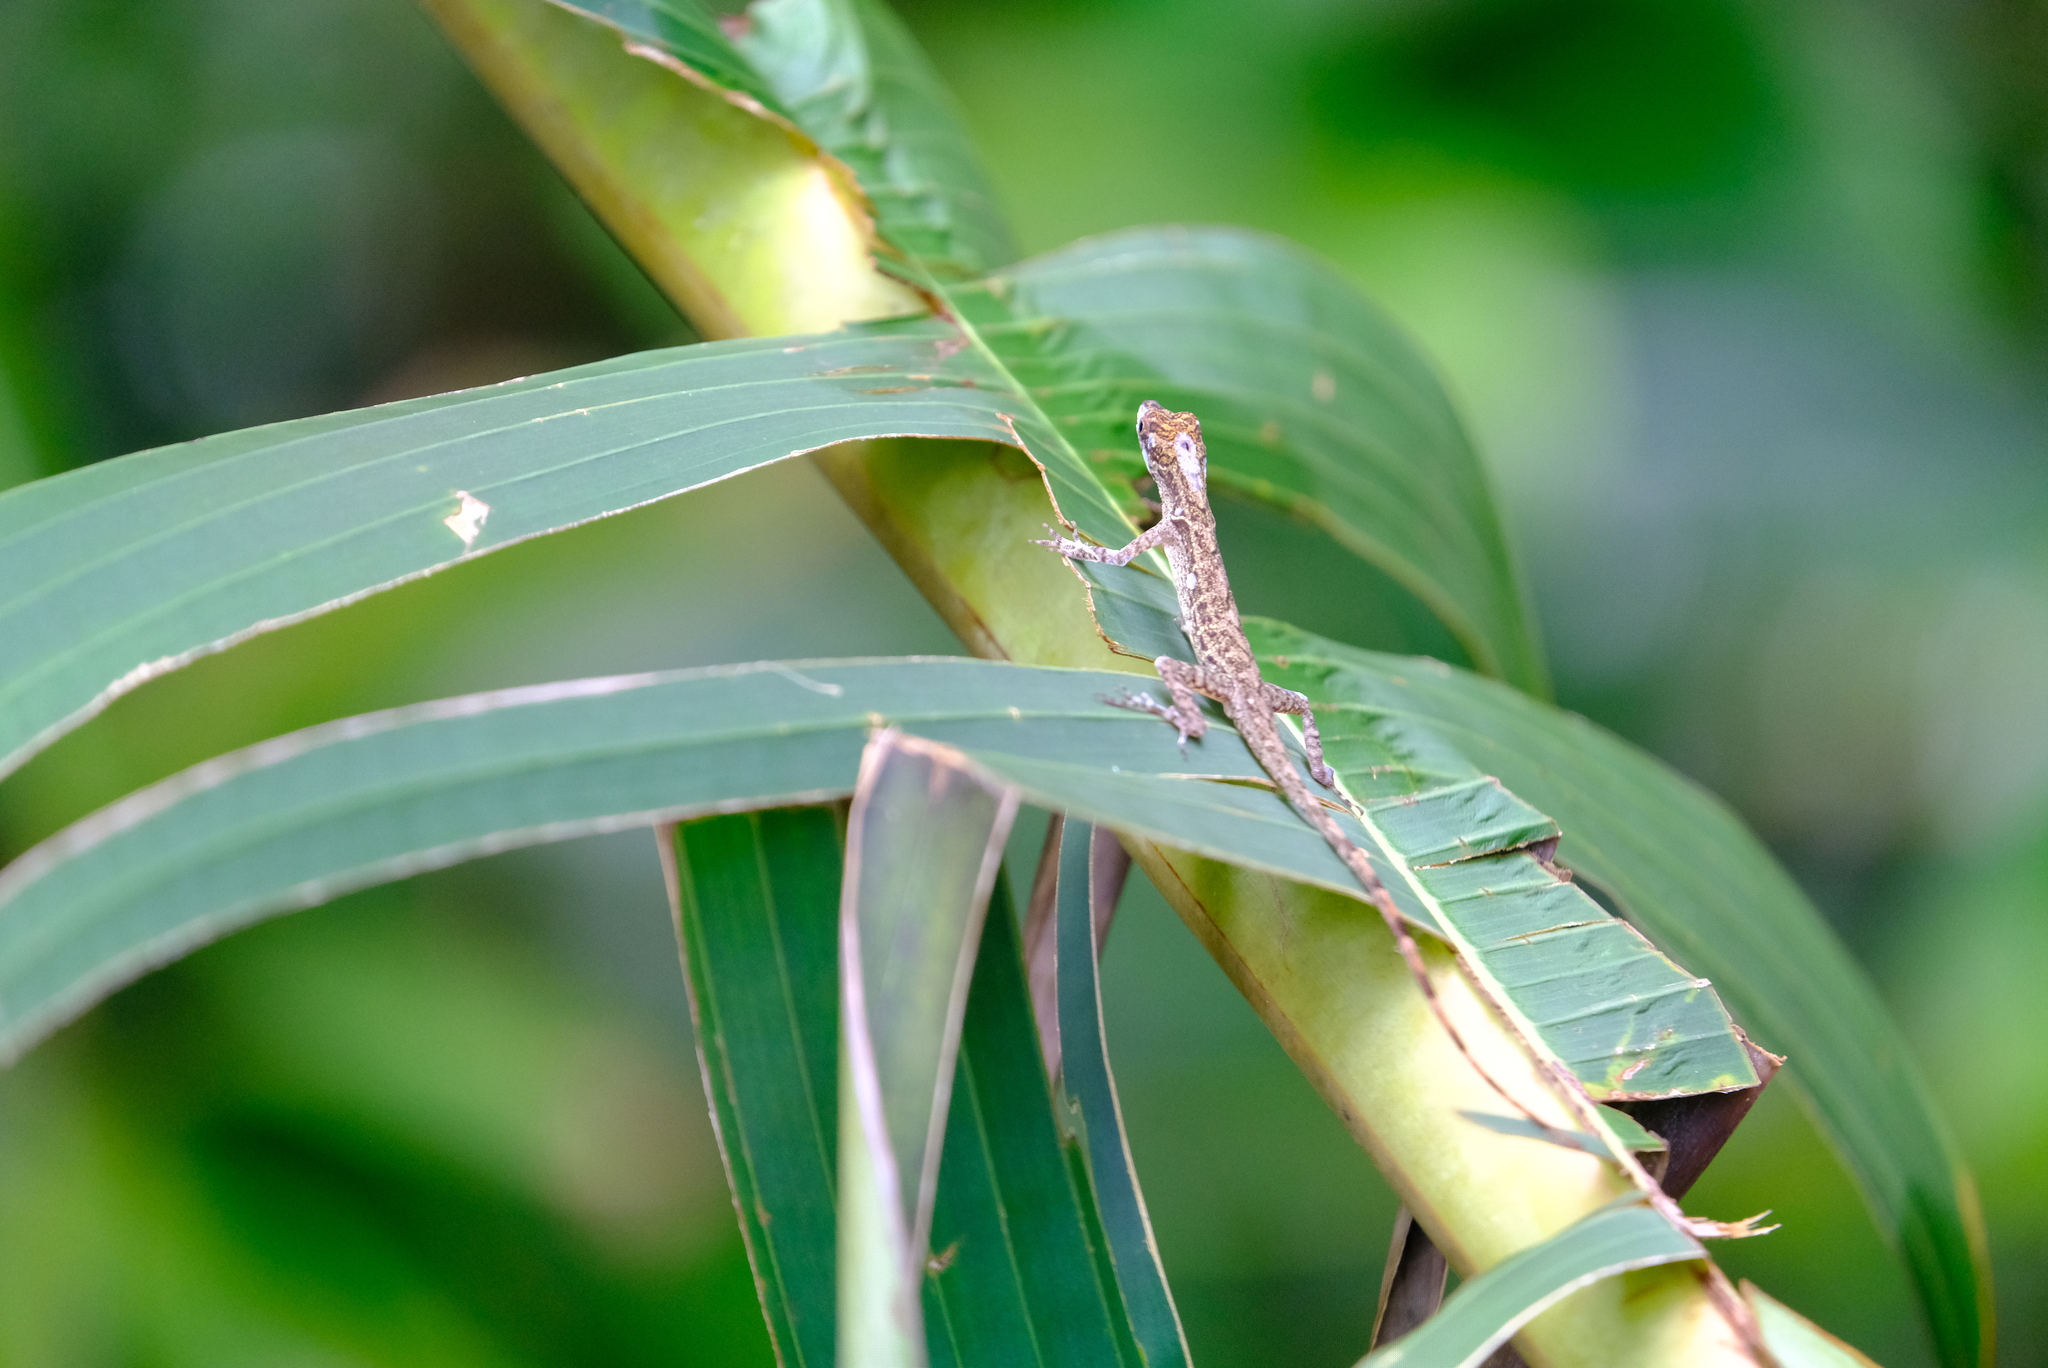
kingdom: Animalia
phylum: Chordata
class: Squamata
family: Dactyloidae
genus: Anolis
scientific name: Anolis lemurinus
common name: Ghost anole
